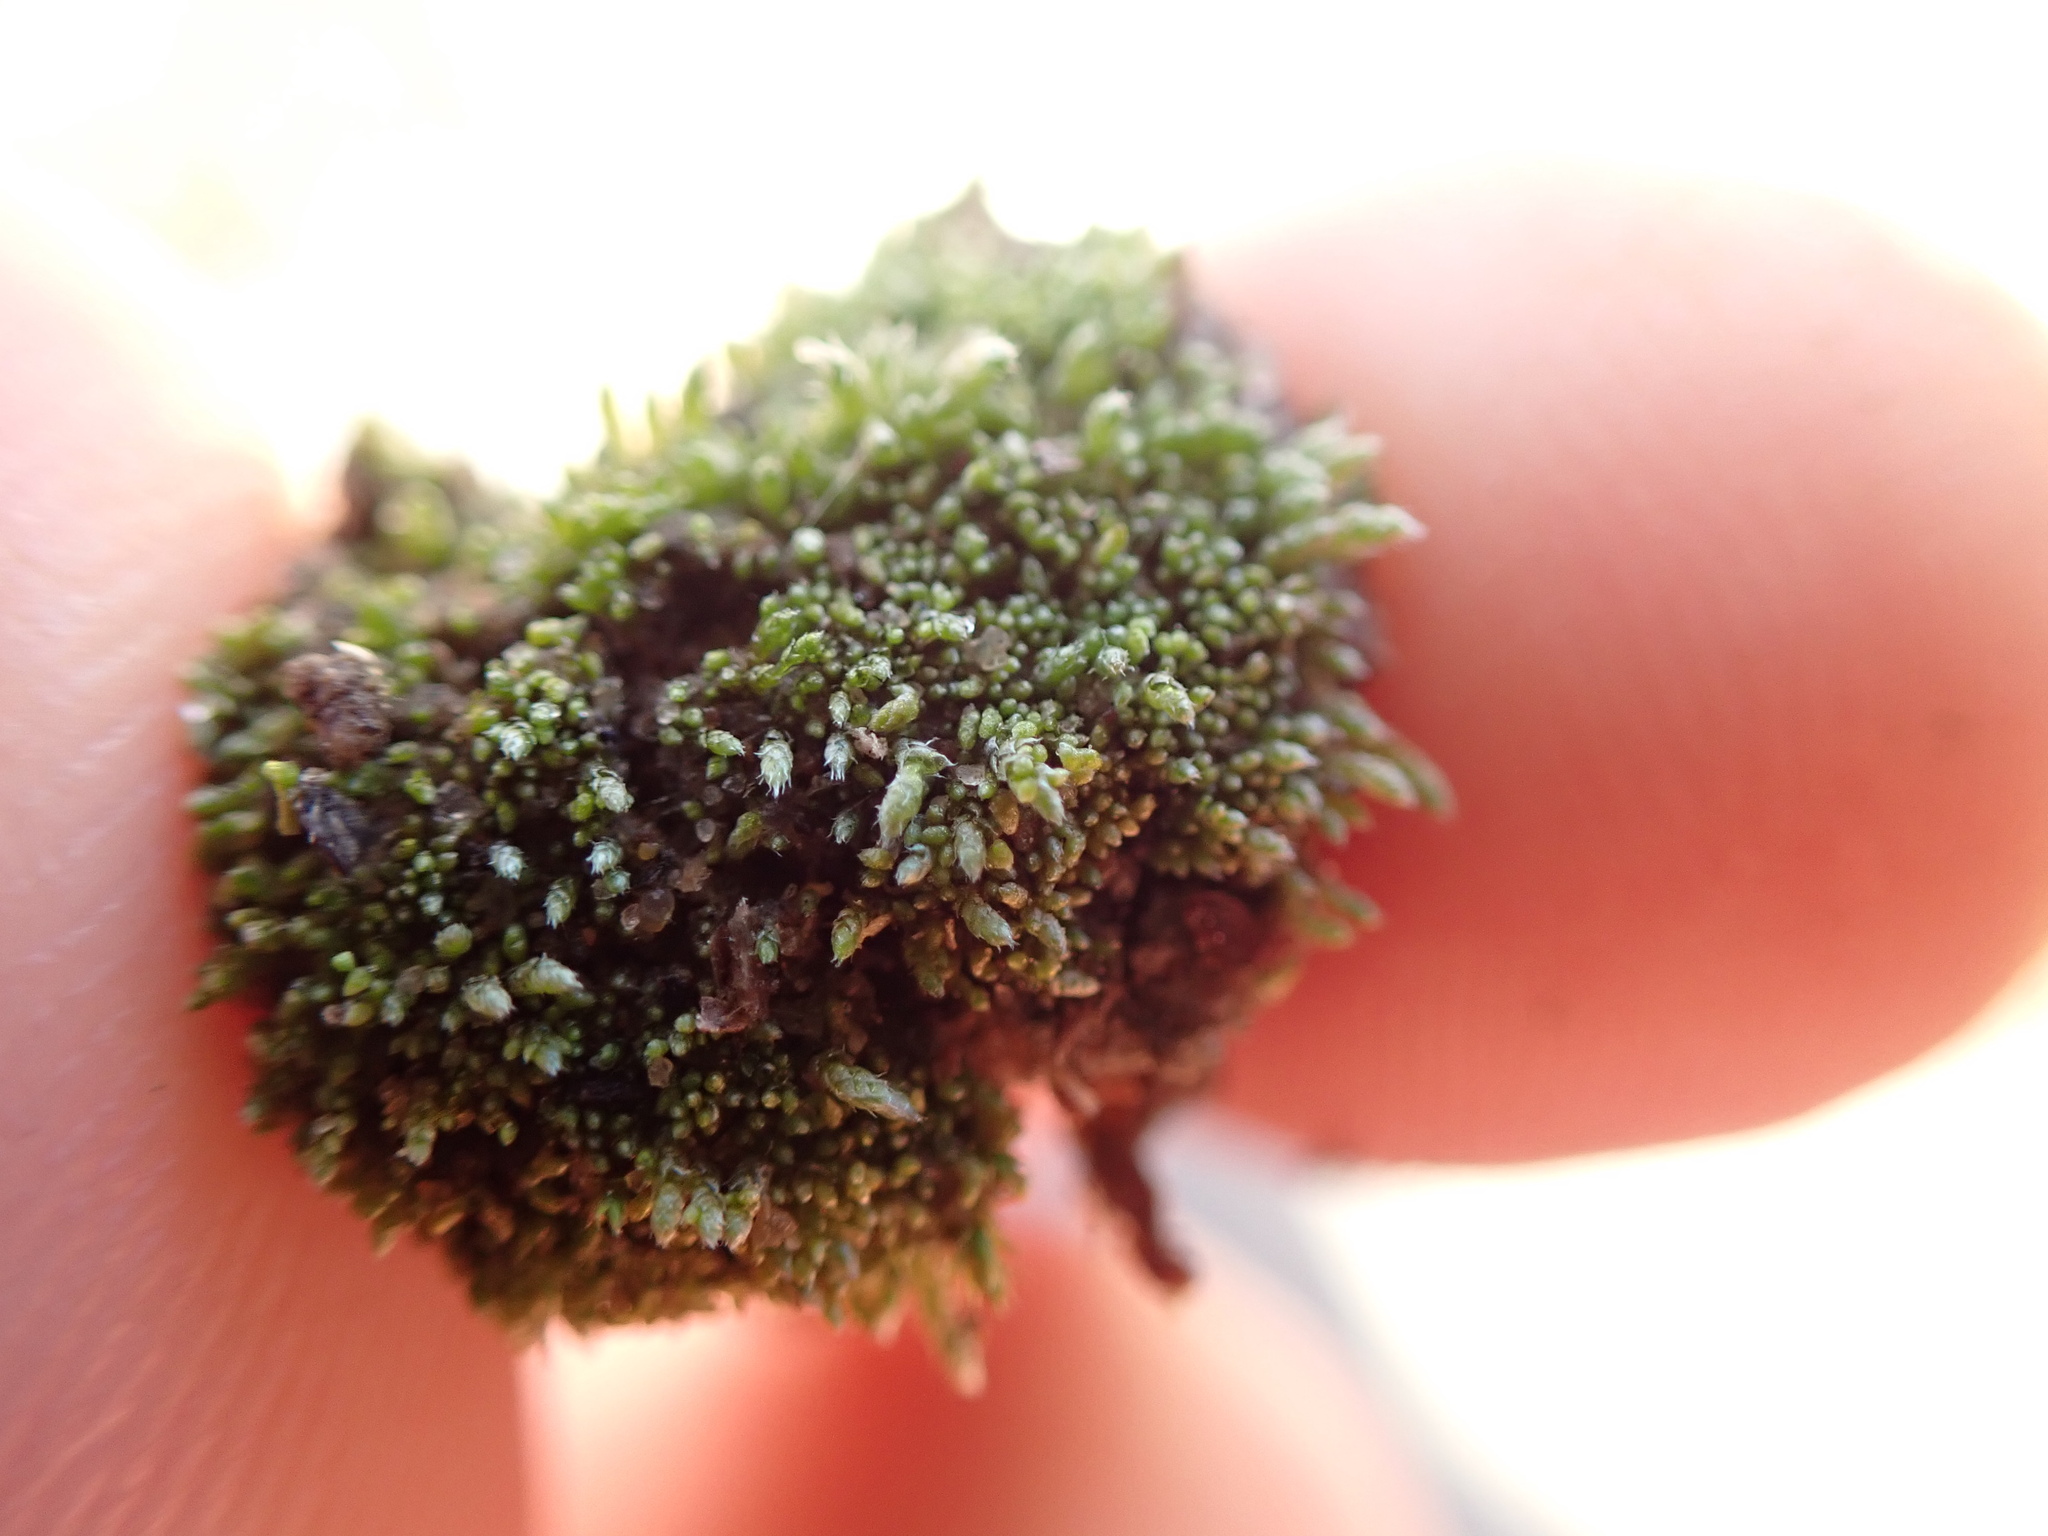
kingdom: Plantae
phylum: Bryophyta
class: Bryopsida
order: Bryales
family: Bryaceae
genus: Bryum
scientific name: Bryum argenteum
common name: Silver-moss
